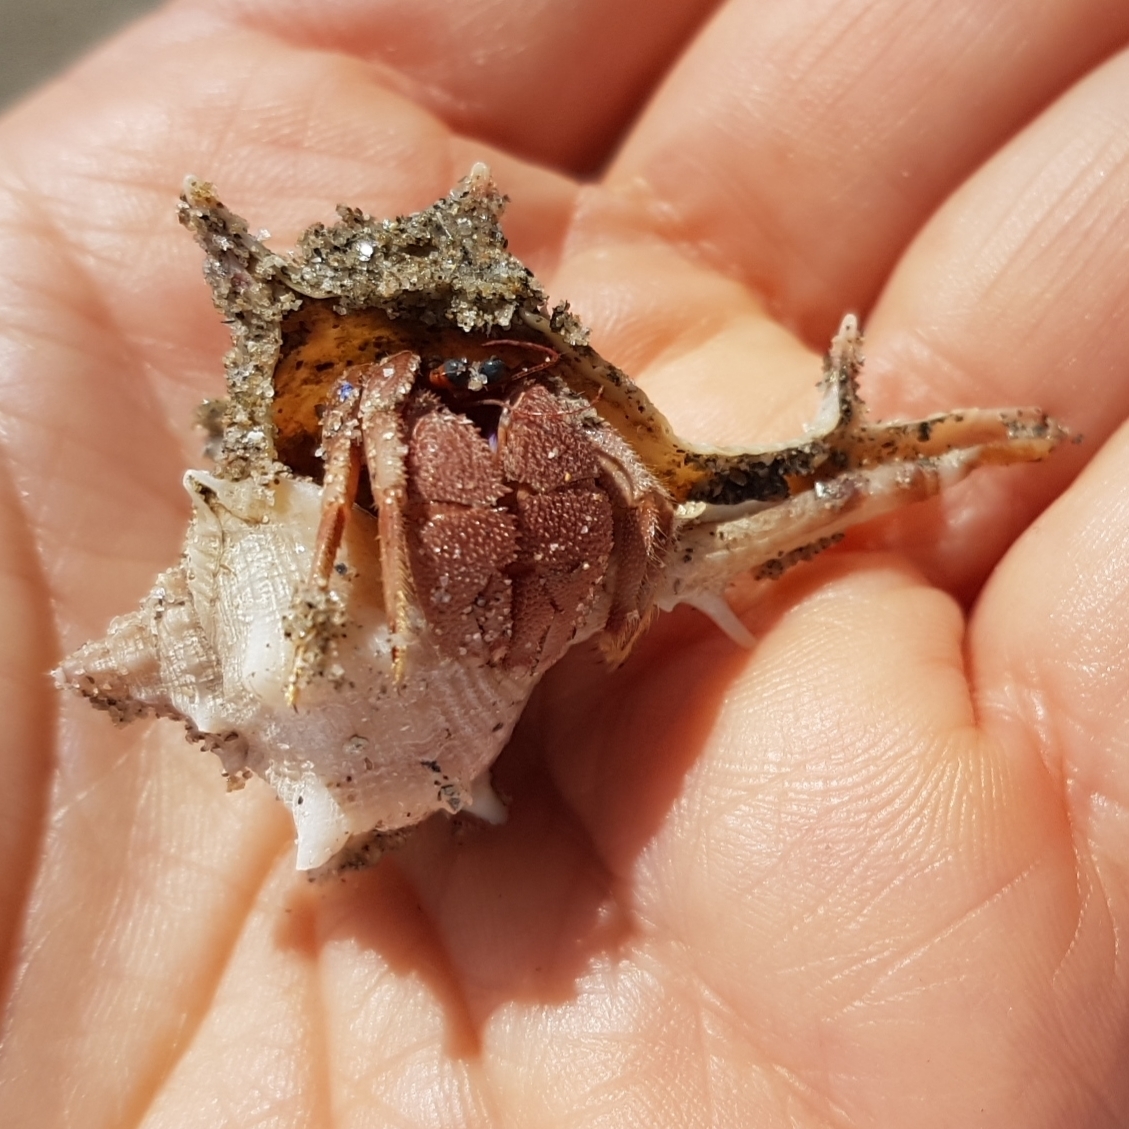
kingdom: Animalia
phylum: Mollusca
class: Gastropoda
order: Neogastropoda
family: Muricidae
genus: Bolinus
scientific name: Bolinus brandaris
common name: Dye murex
